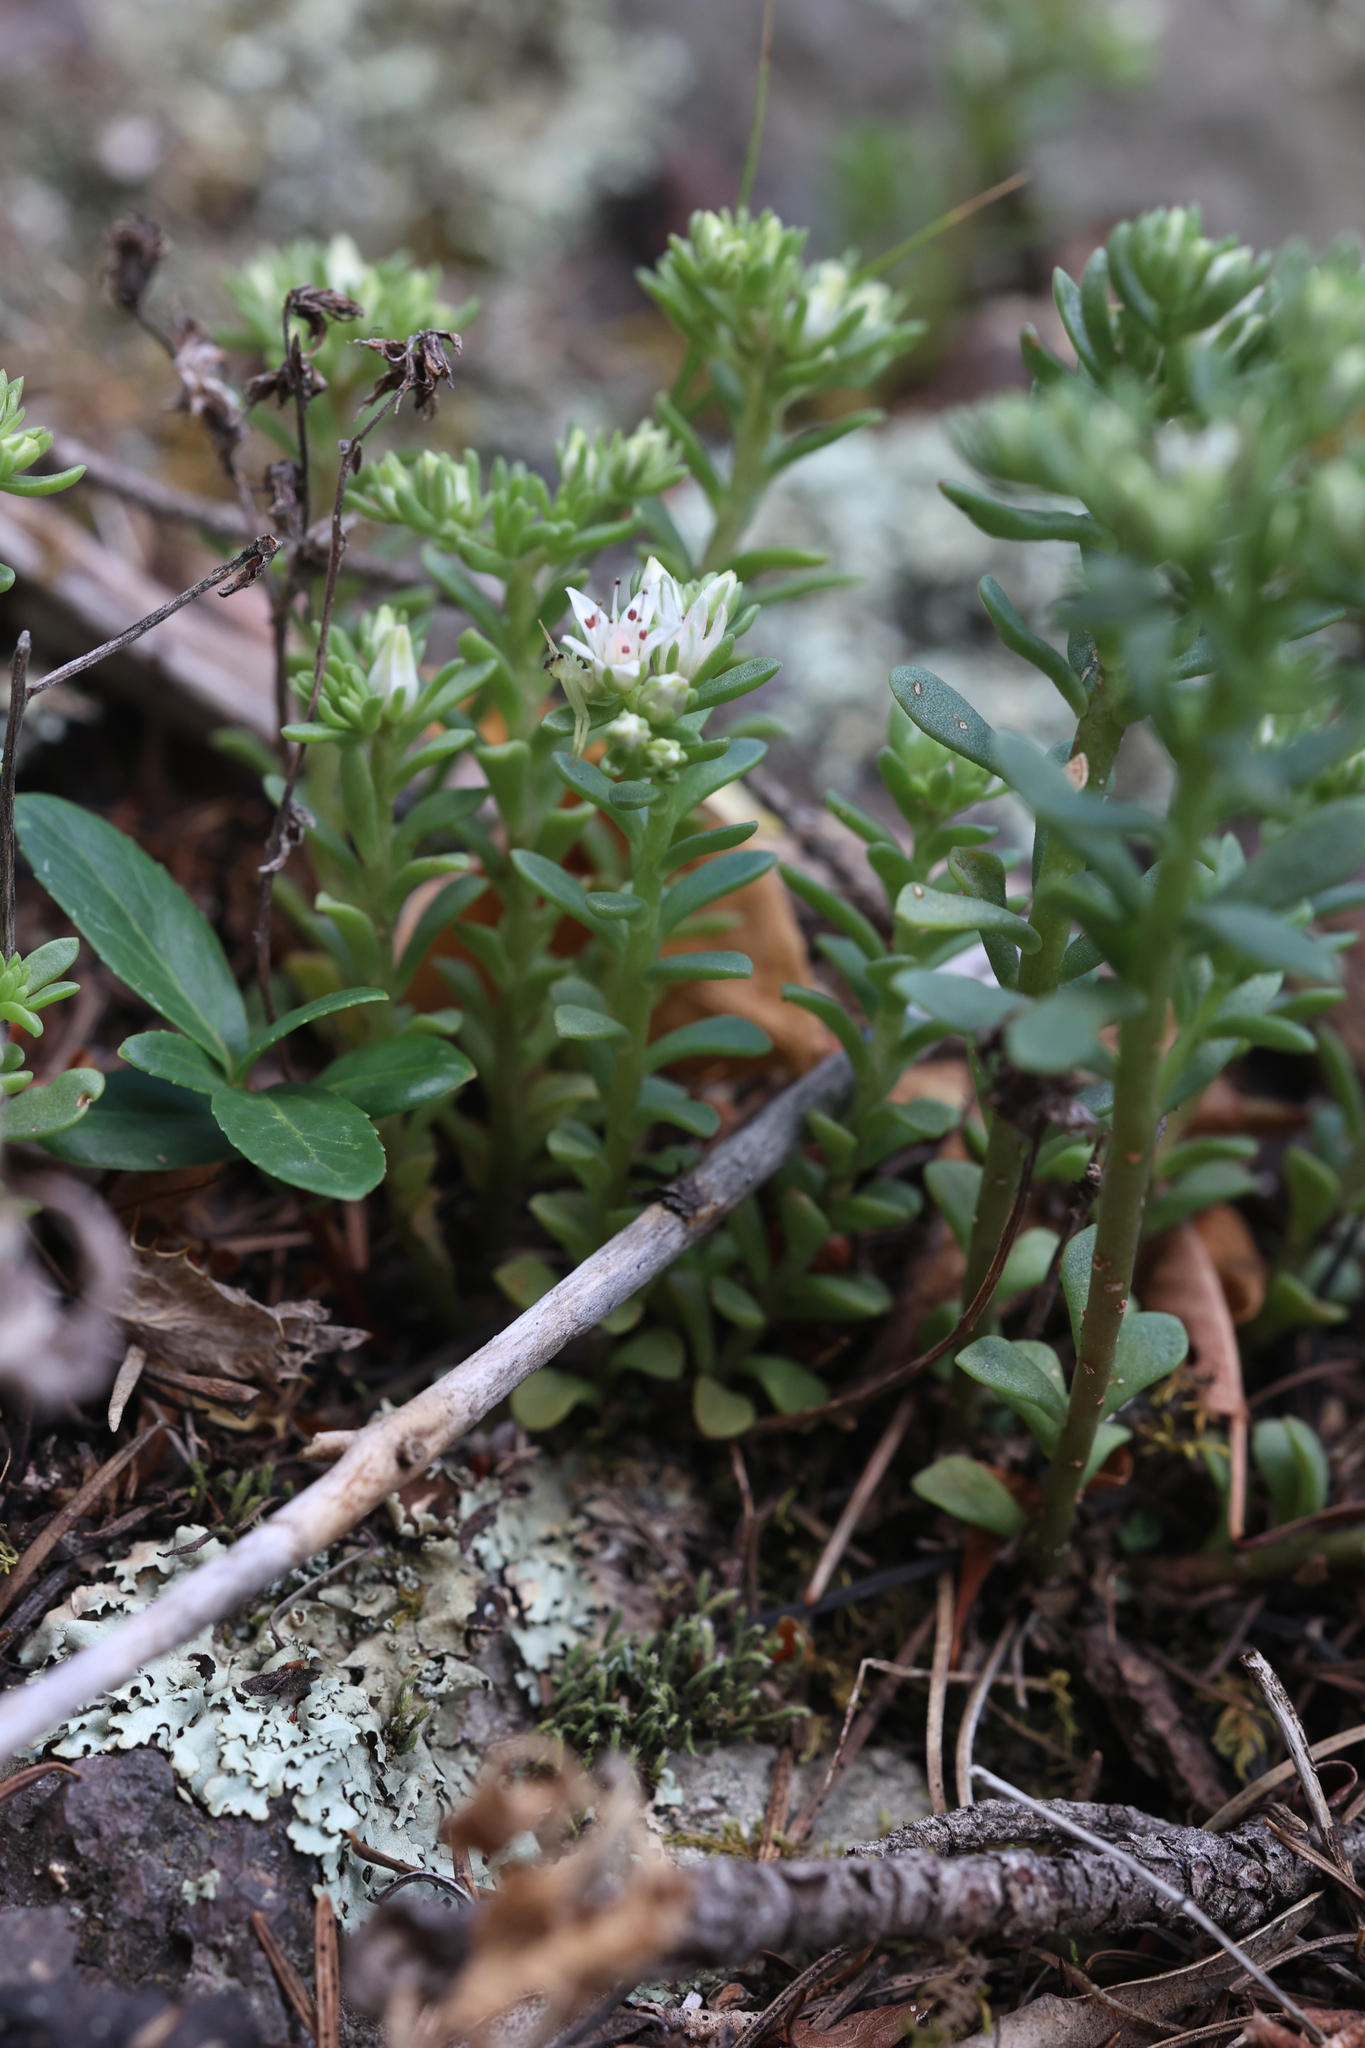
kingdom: Plantae
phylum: Tracheophyta
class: Magnoliopsida
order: Saxifragales
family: Crassulaceae
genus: Sedum
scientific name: Sedum cockerellii
